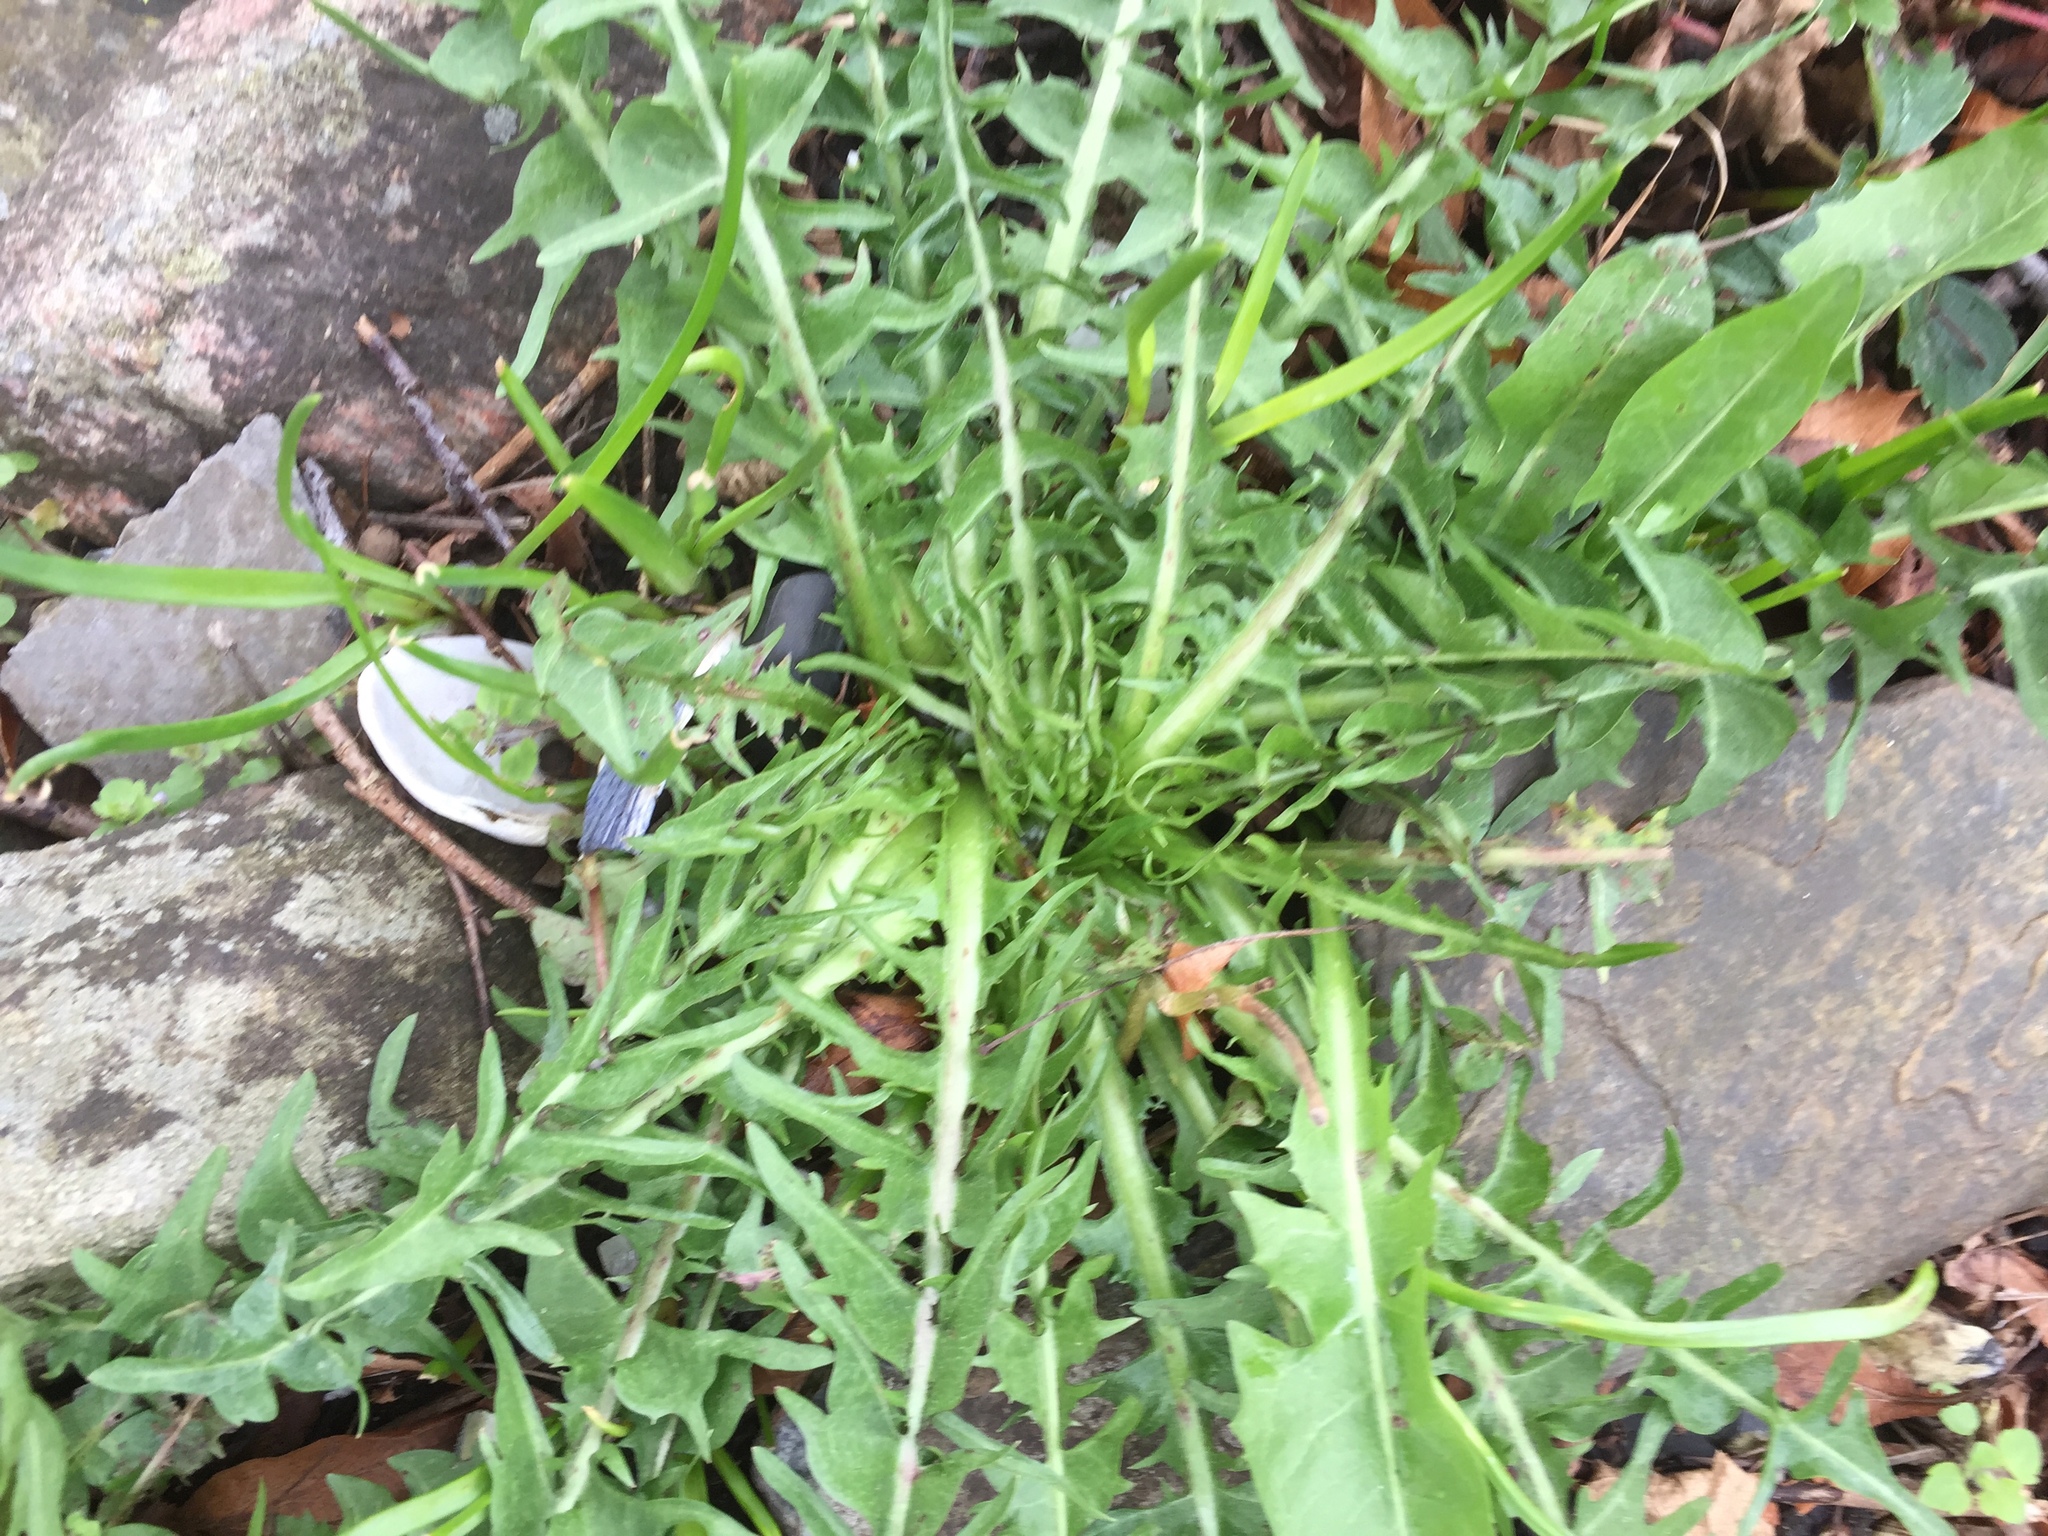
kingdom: Plantae
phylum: Tracheophyta
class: Magnoliopsida
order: Asterales
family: Asteraceae
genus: Taraxacum
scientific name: Taraxacum officinale
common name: Common dandelion
